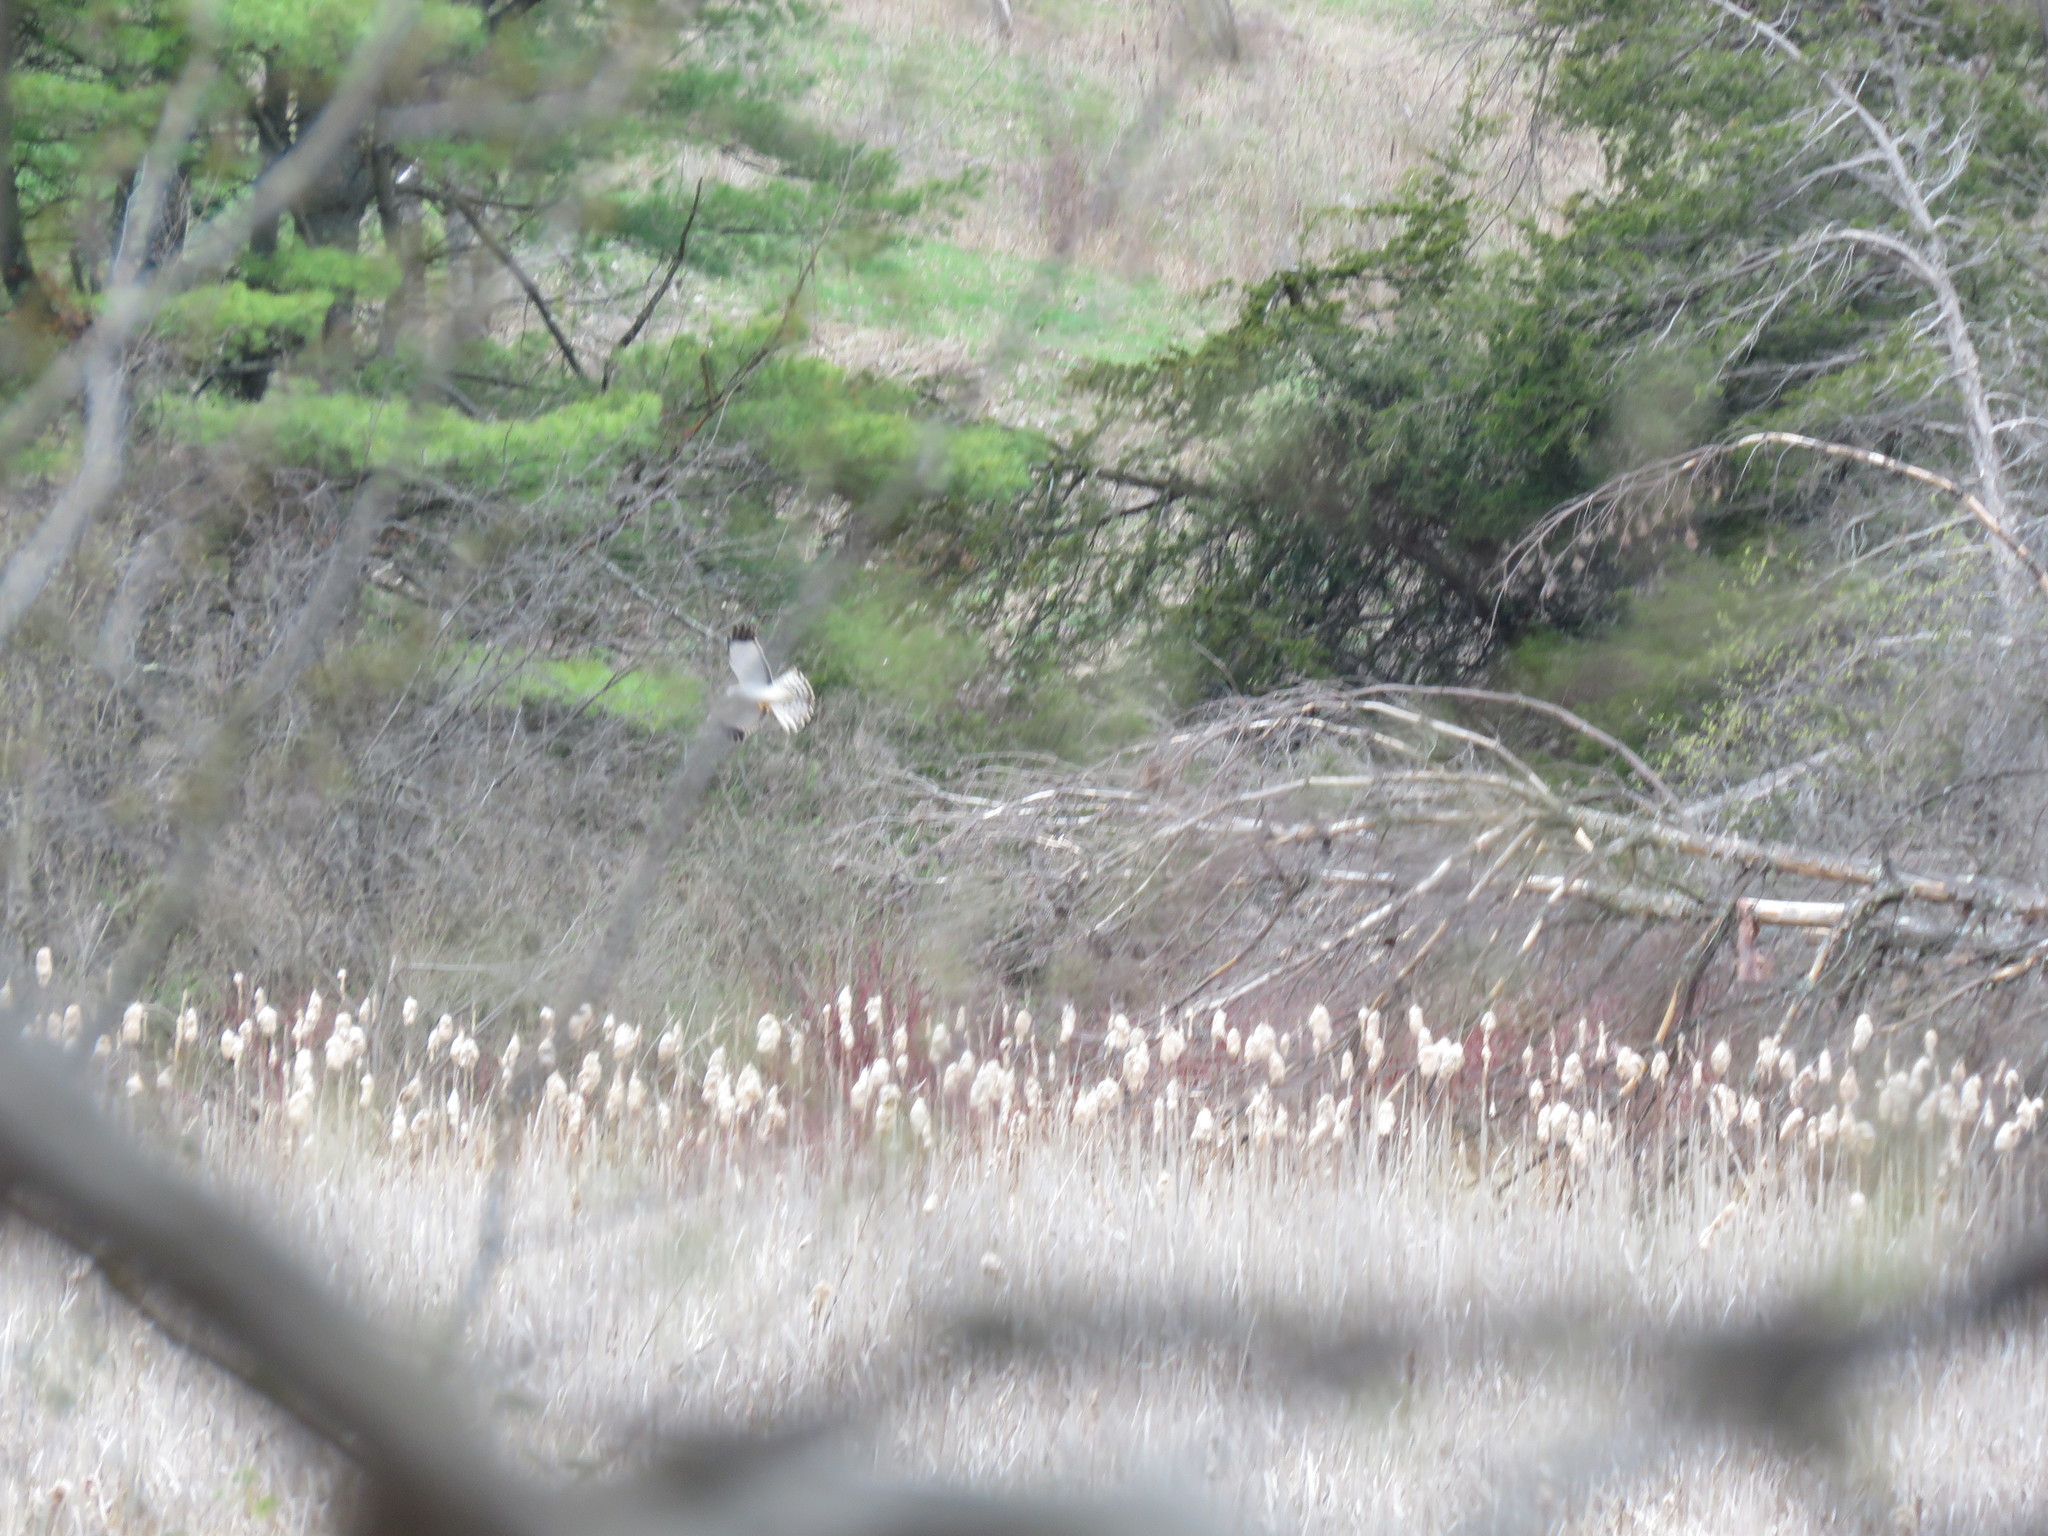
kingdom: Animalia
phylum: Chordata
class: Aves
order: Accipitriformes
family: Accipitridae
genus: Circus
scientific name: Circus cyaneus
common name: Hen harrier
